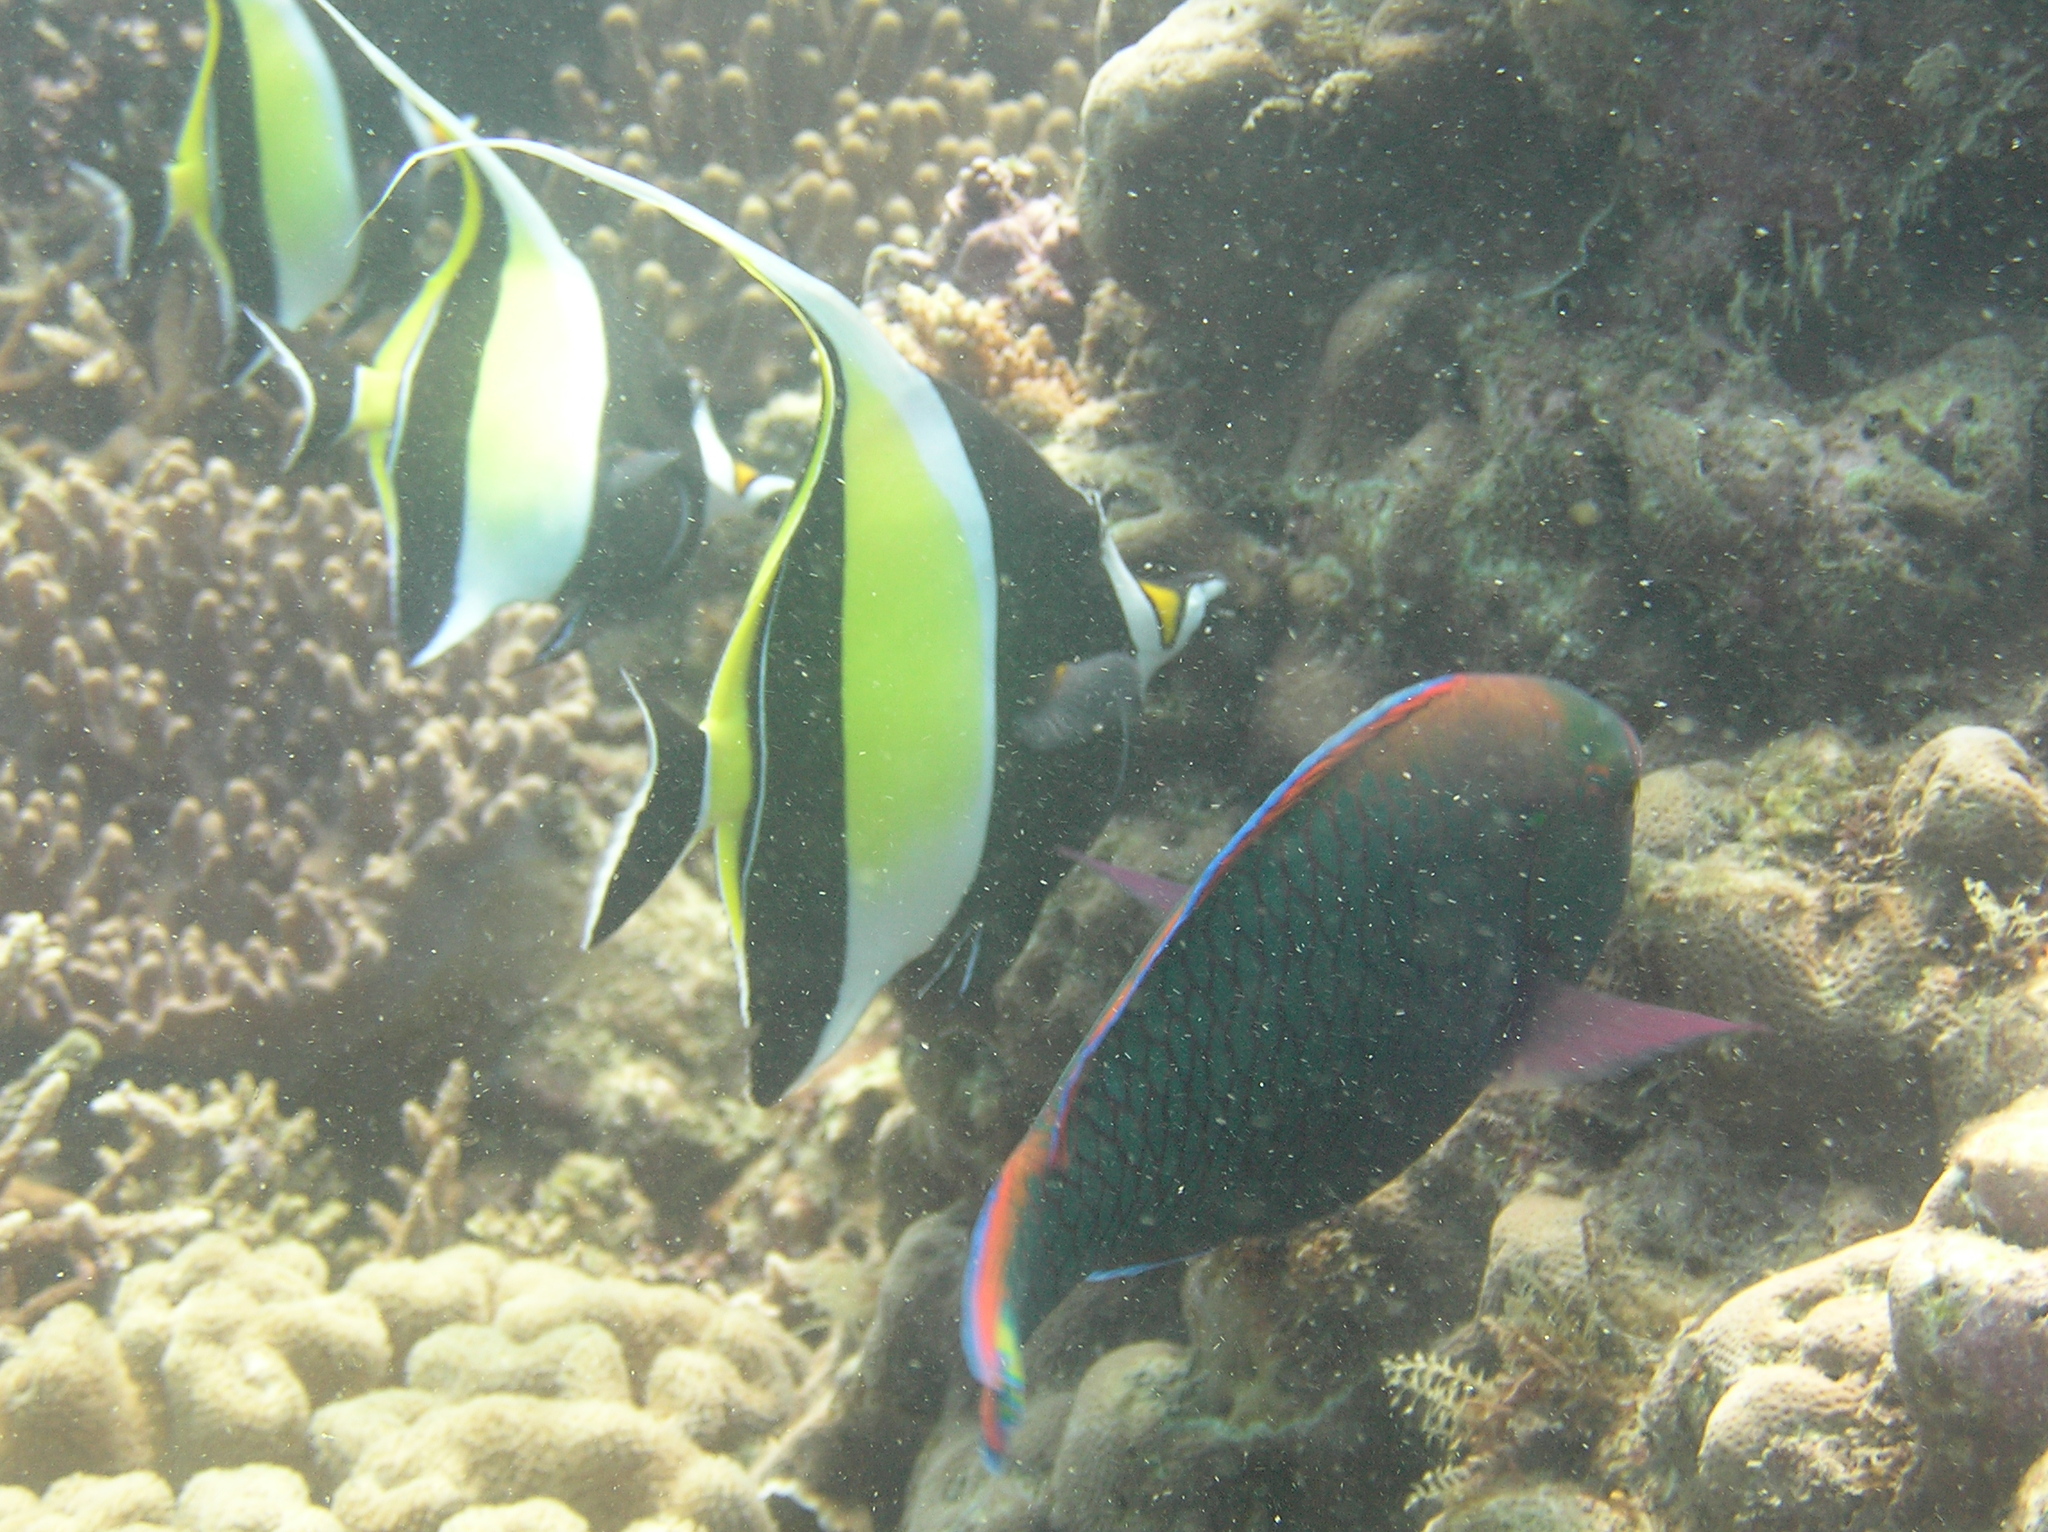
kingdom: Animalia
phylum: Chordata
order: Perciformes
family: Zanclidae
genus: Zanclus
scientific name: Zanclus cornutus
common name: Moorish idol
